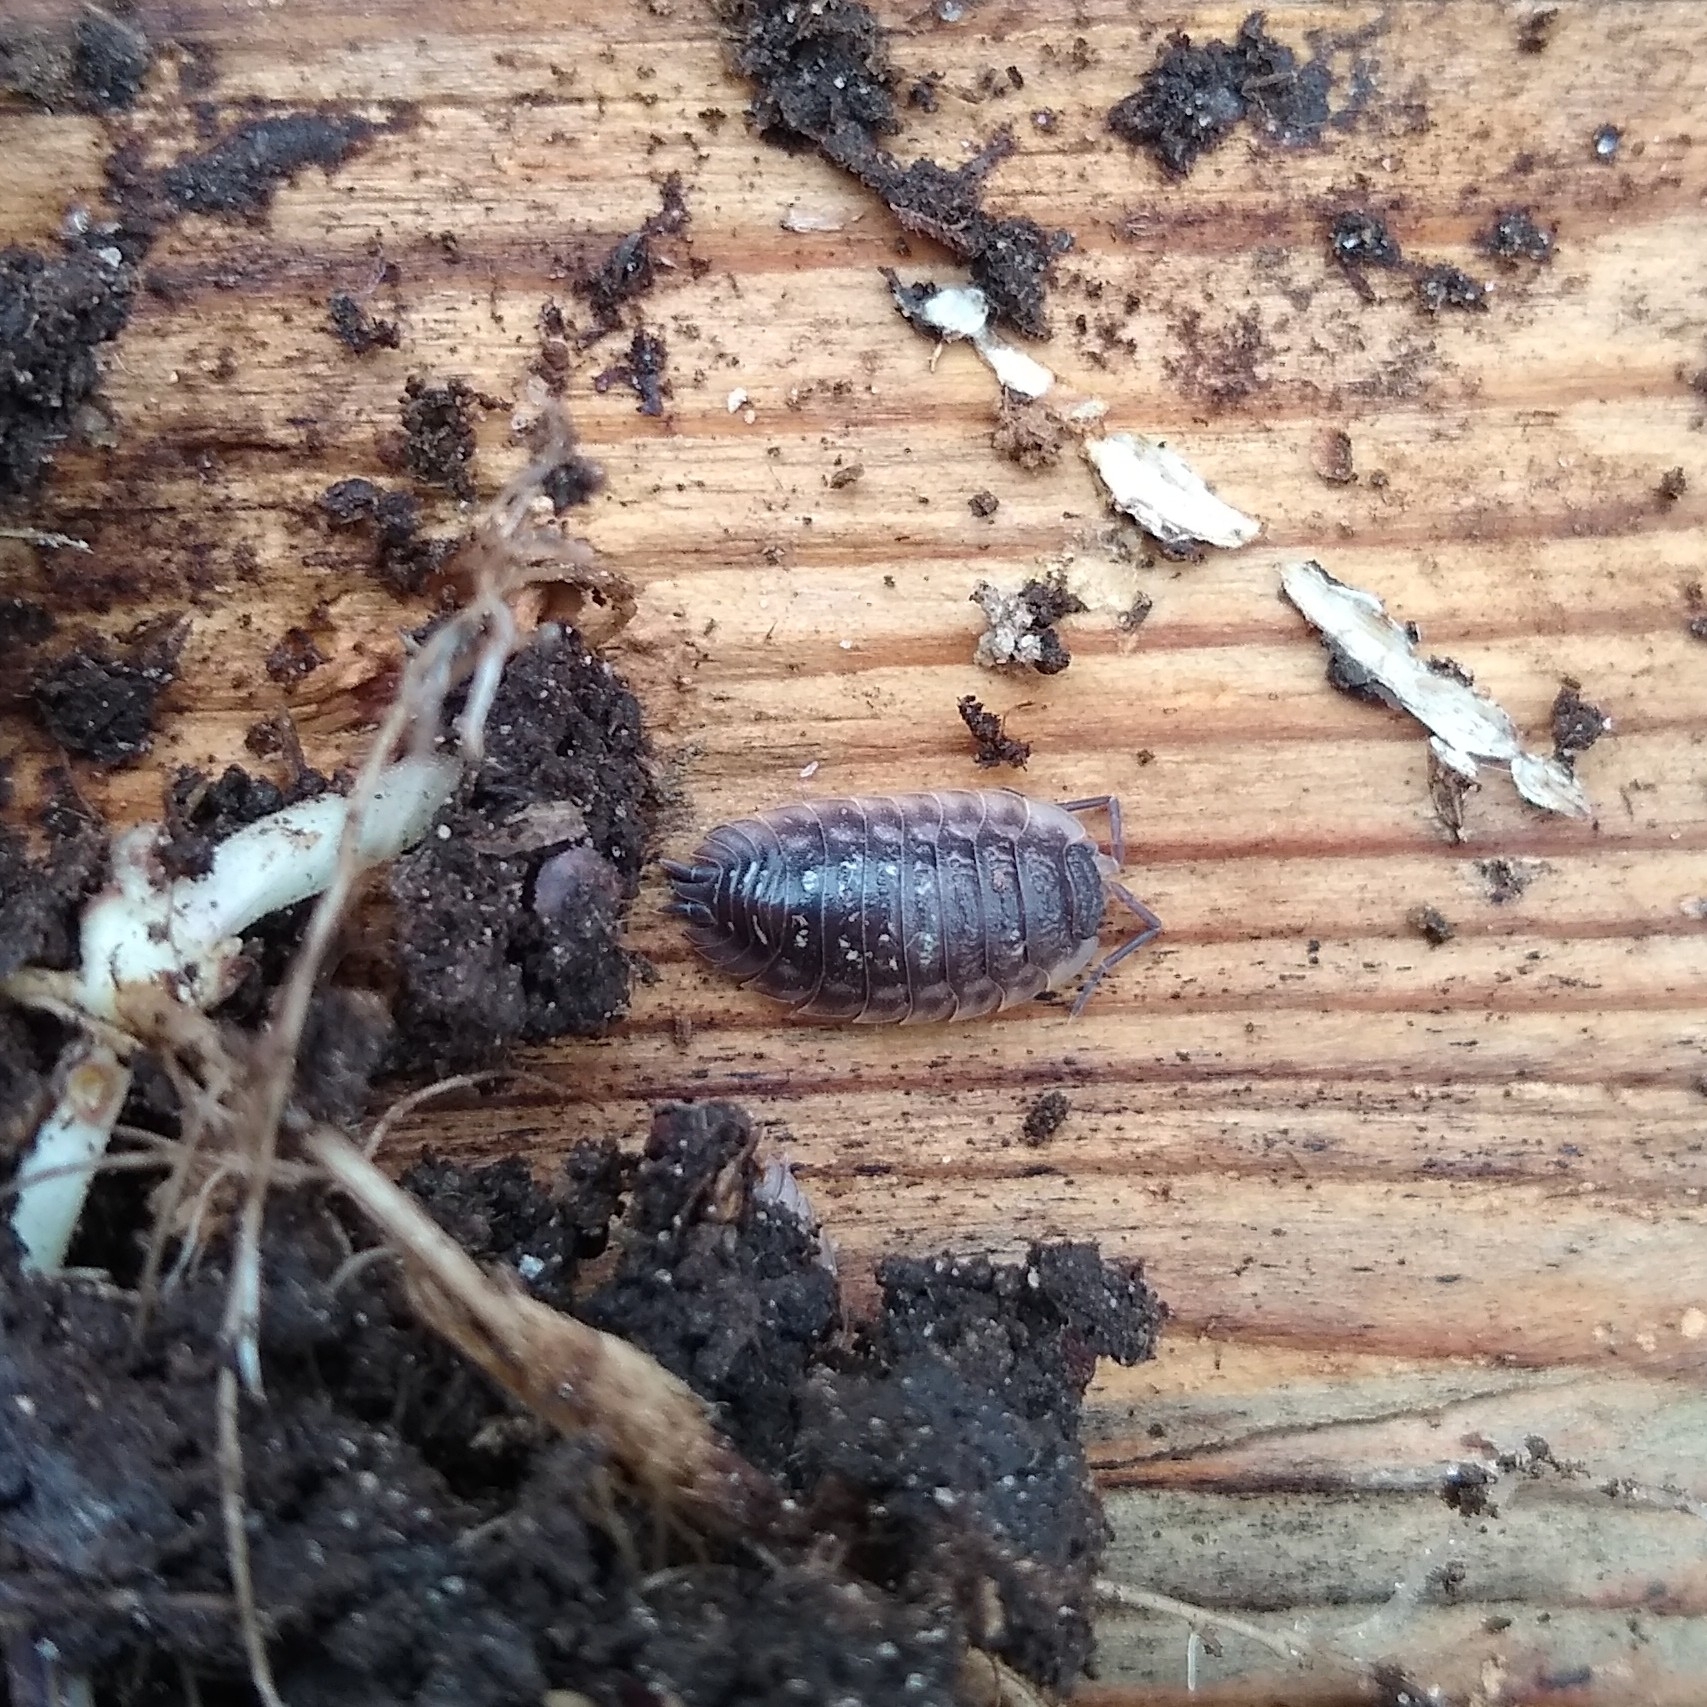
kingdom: Animalia
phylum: Arthropoda
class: Malacostraca
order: Isopoda
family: Oniscidae
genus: Oniscus
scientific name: Oniscus asellus
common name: Common shiny woodlouse
